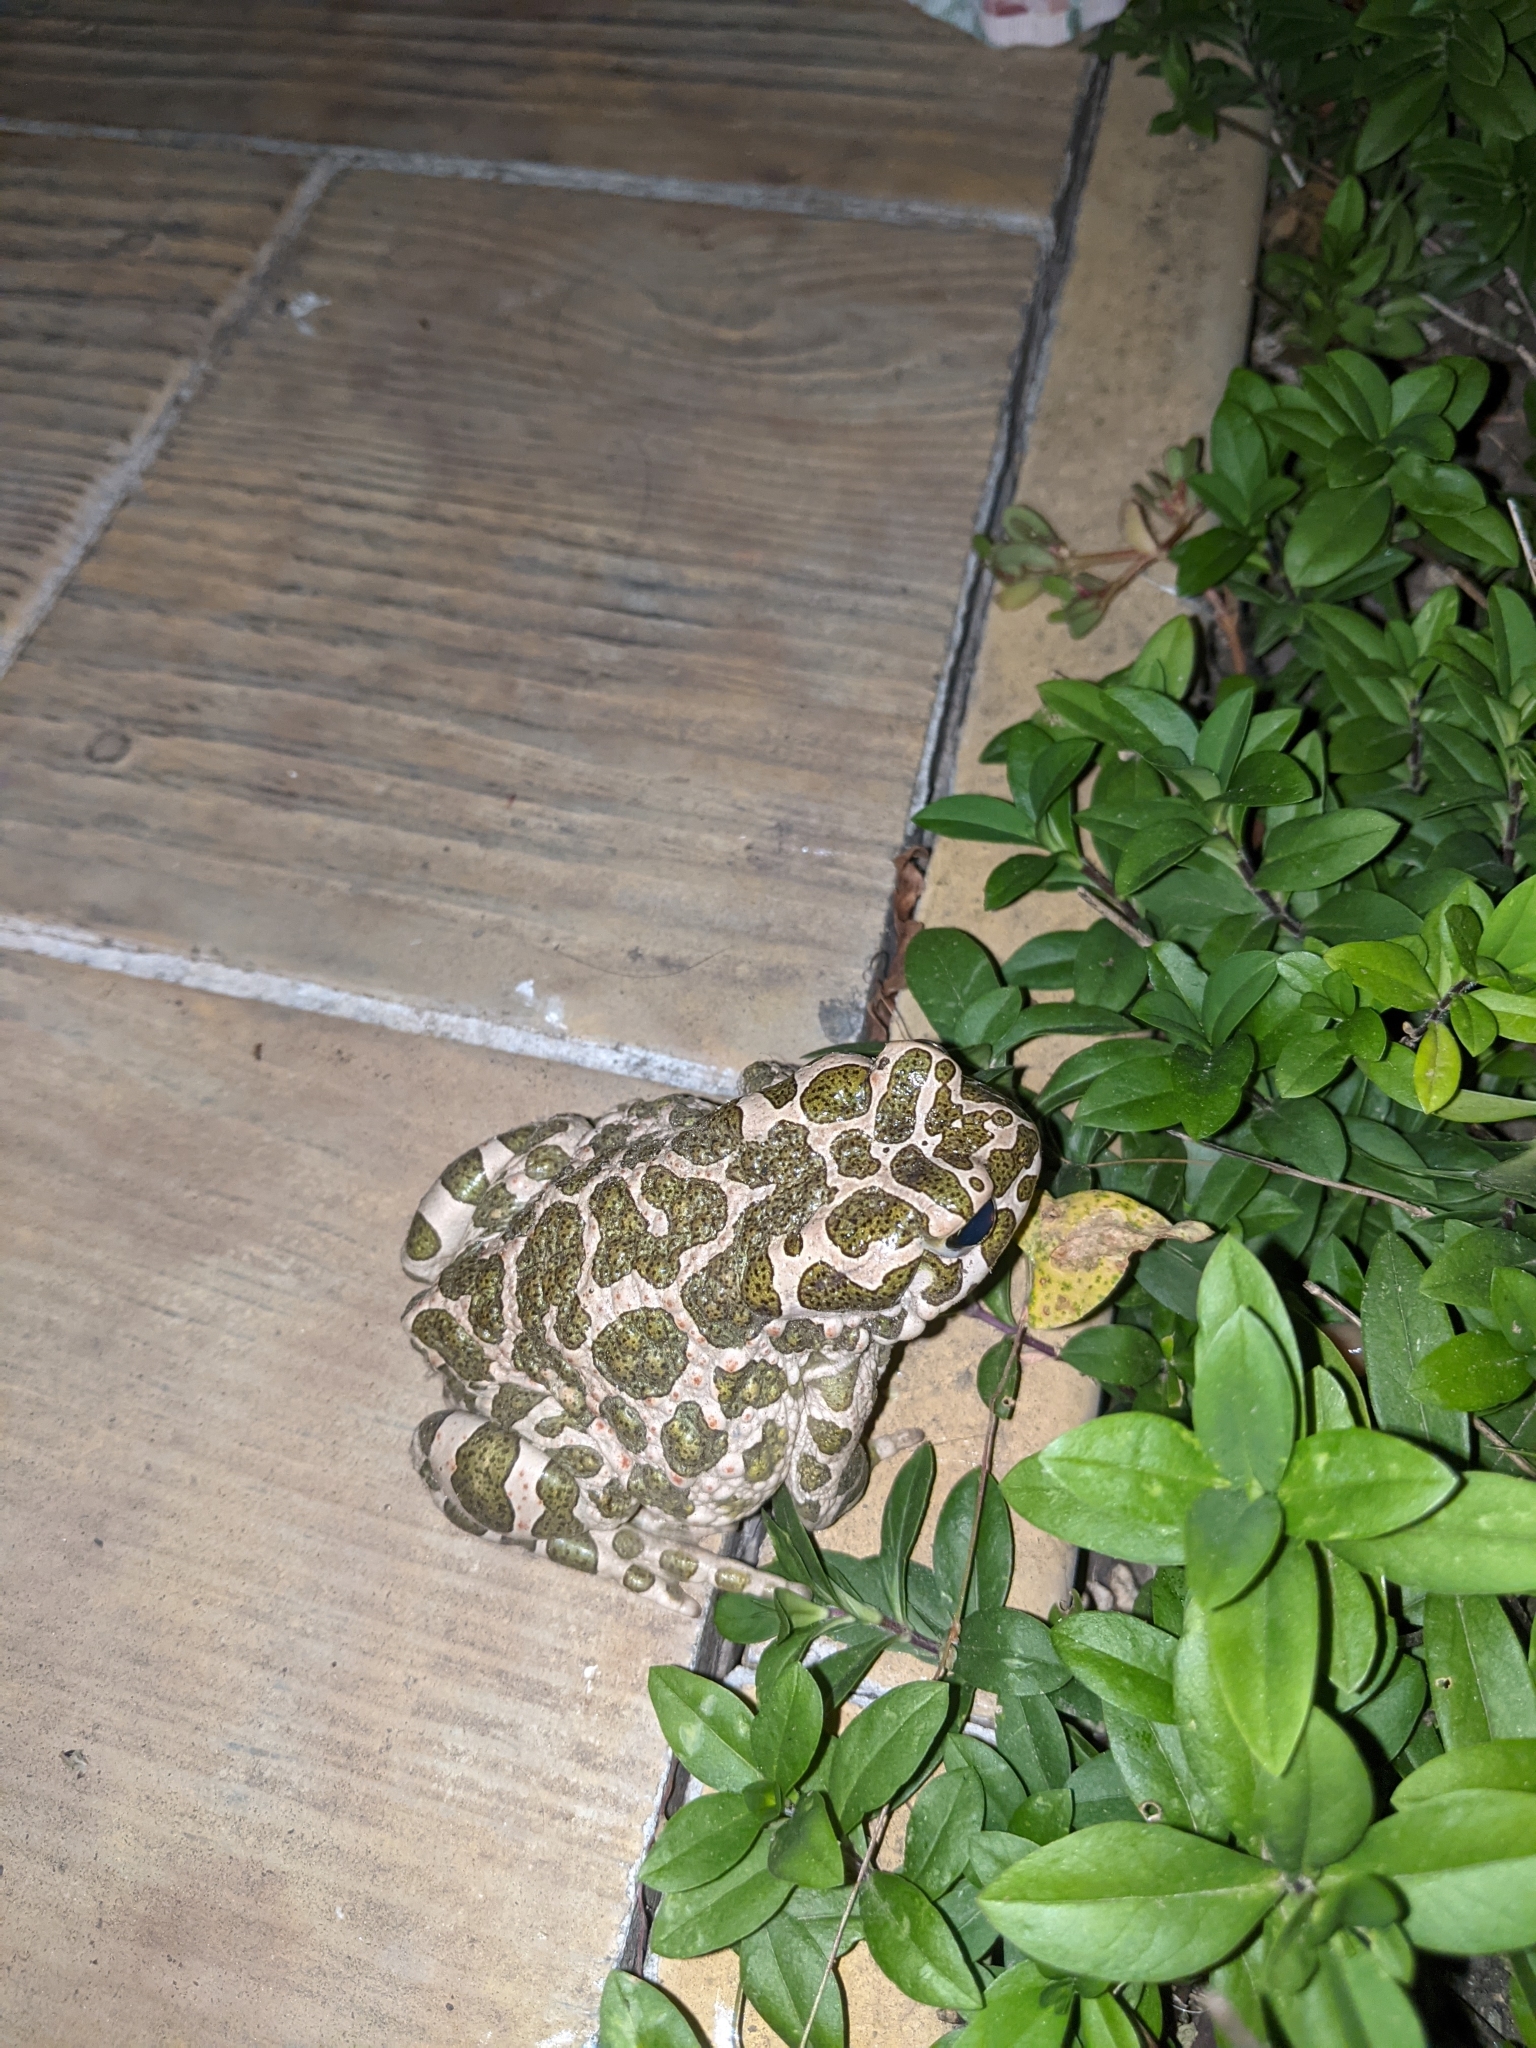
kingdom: Animalia
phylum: Chordata
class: Amphibia
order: Anura
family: Bufonidae
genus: Bufotes
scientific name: Bufotes viridis
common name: European green toad
